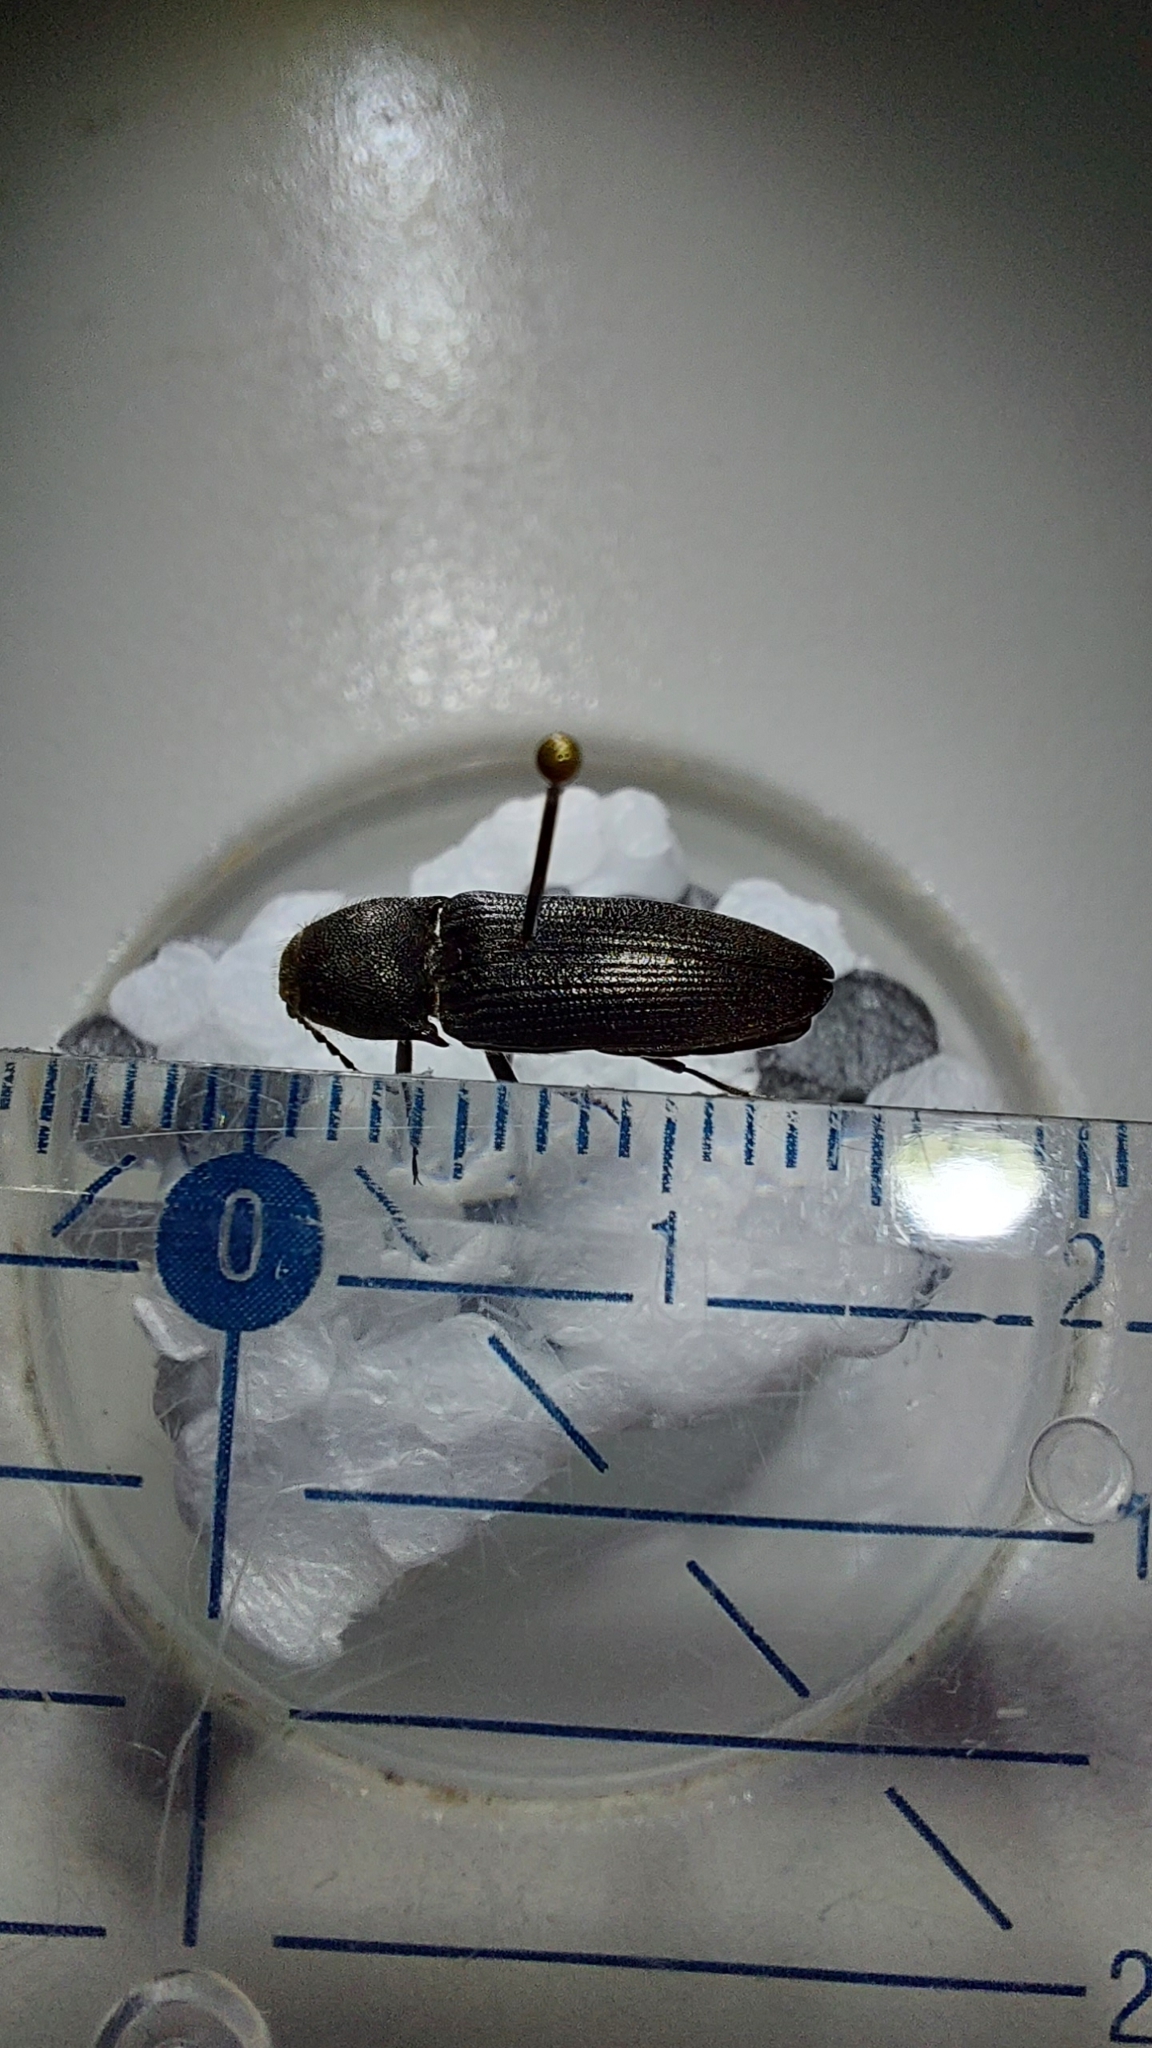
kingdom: Animalia
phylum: Arthropoda
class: Insecta
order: Coleoptera
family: Elateridae
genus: Melanotus
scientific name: Melanotus punctolineatus
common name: Sandwich click beetle
